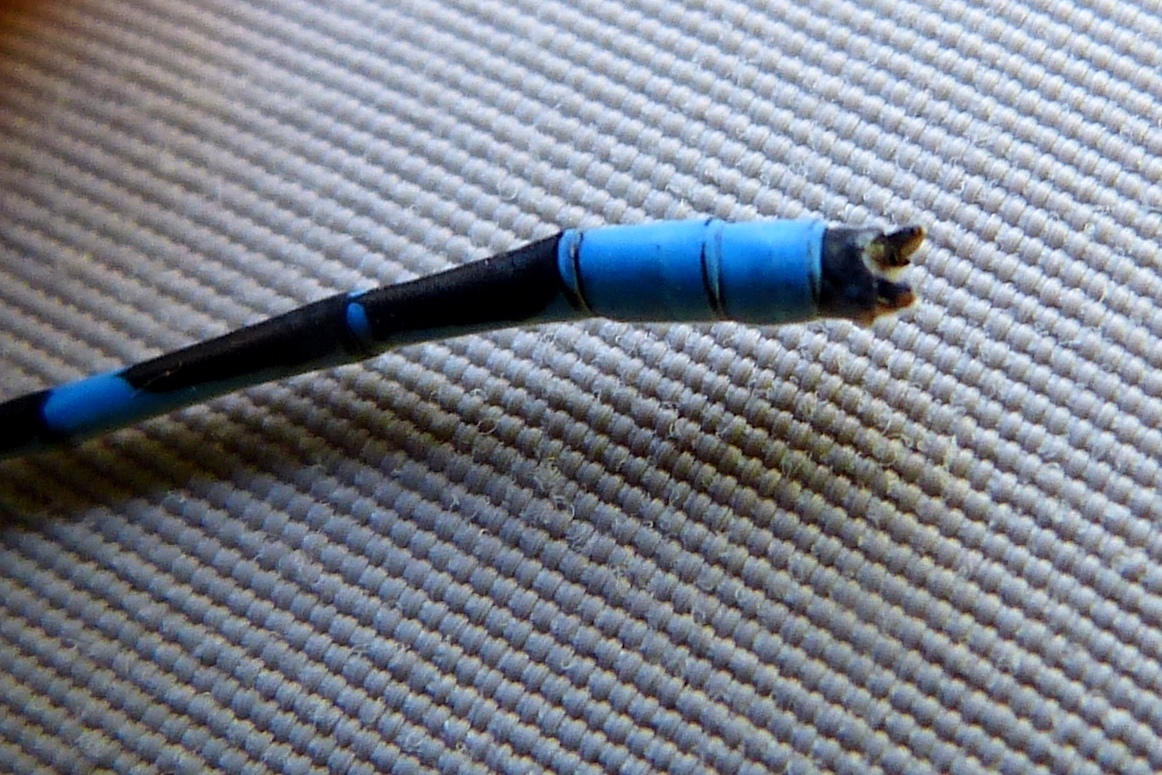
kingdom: Animalia
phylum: Arthropoda
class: Insecta
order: Odonata
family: Coenagrionidae
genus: Enallagma
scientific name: Enallagma civile
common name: Damselfly
